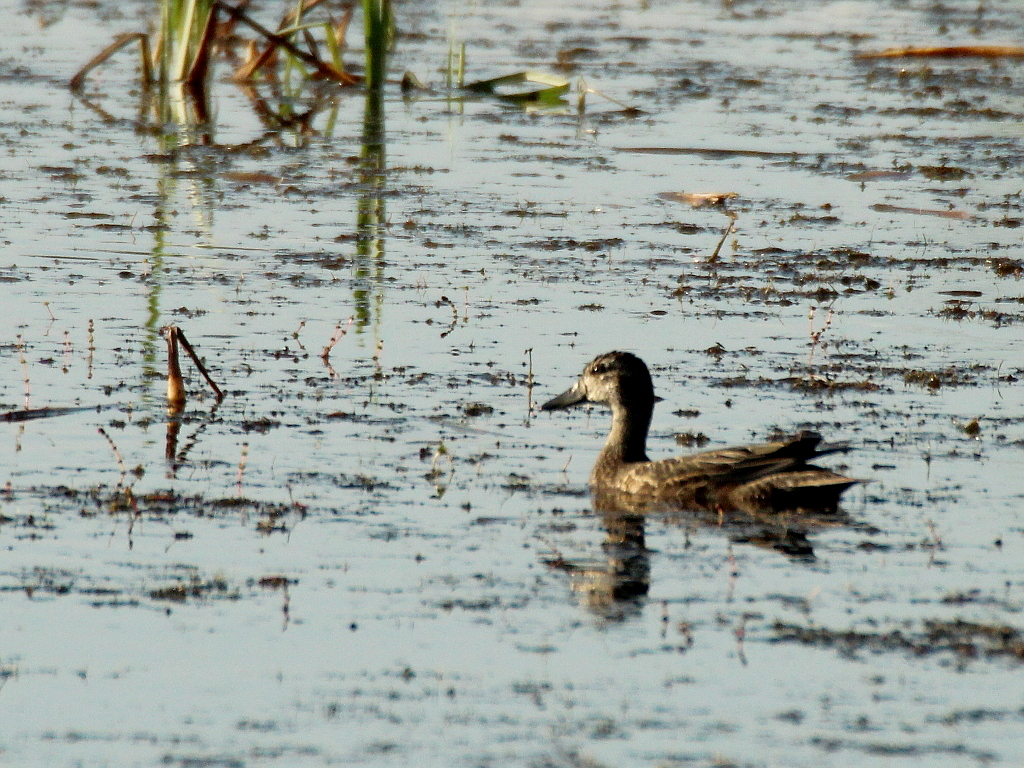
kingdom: Animalia
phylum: Chordata
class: Aves
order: Anseriformes
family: Anatidae
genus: Spatula
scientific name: Spatula querquedula
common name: Garganey
